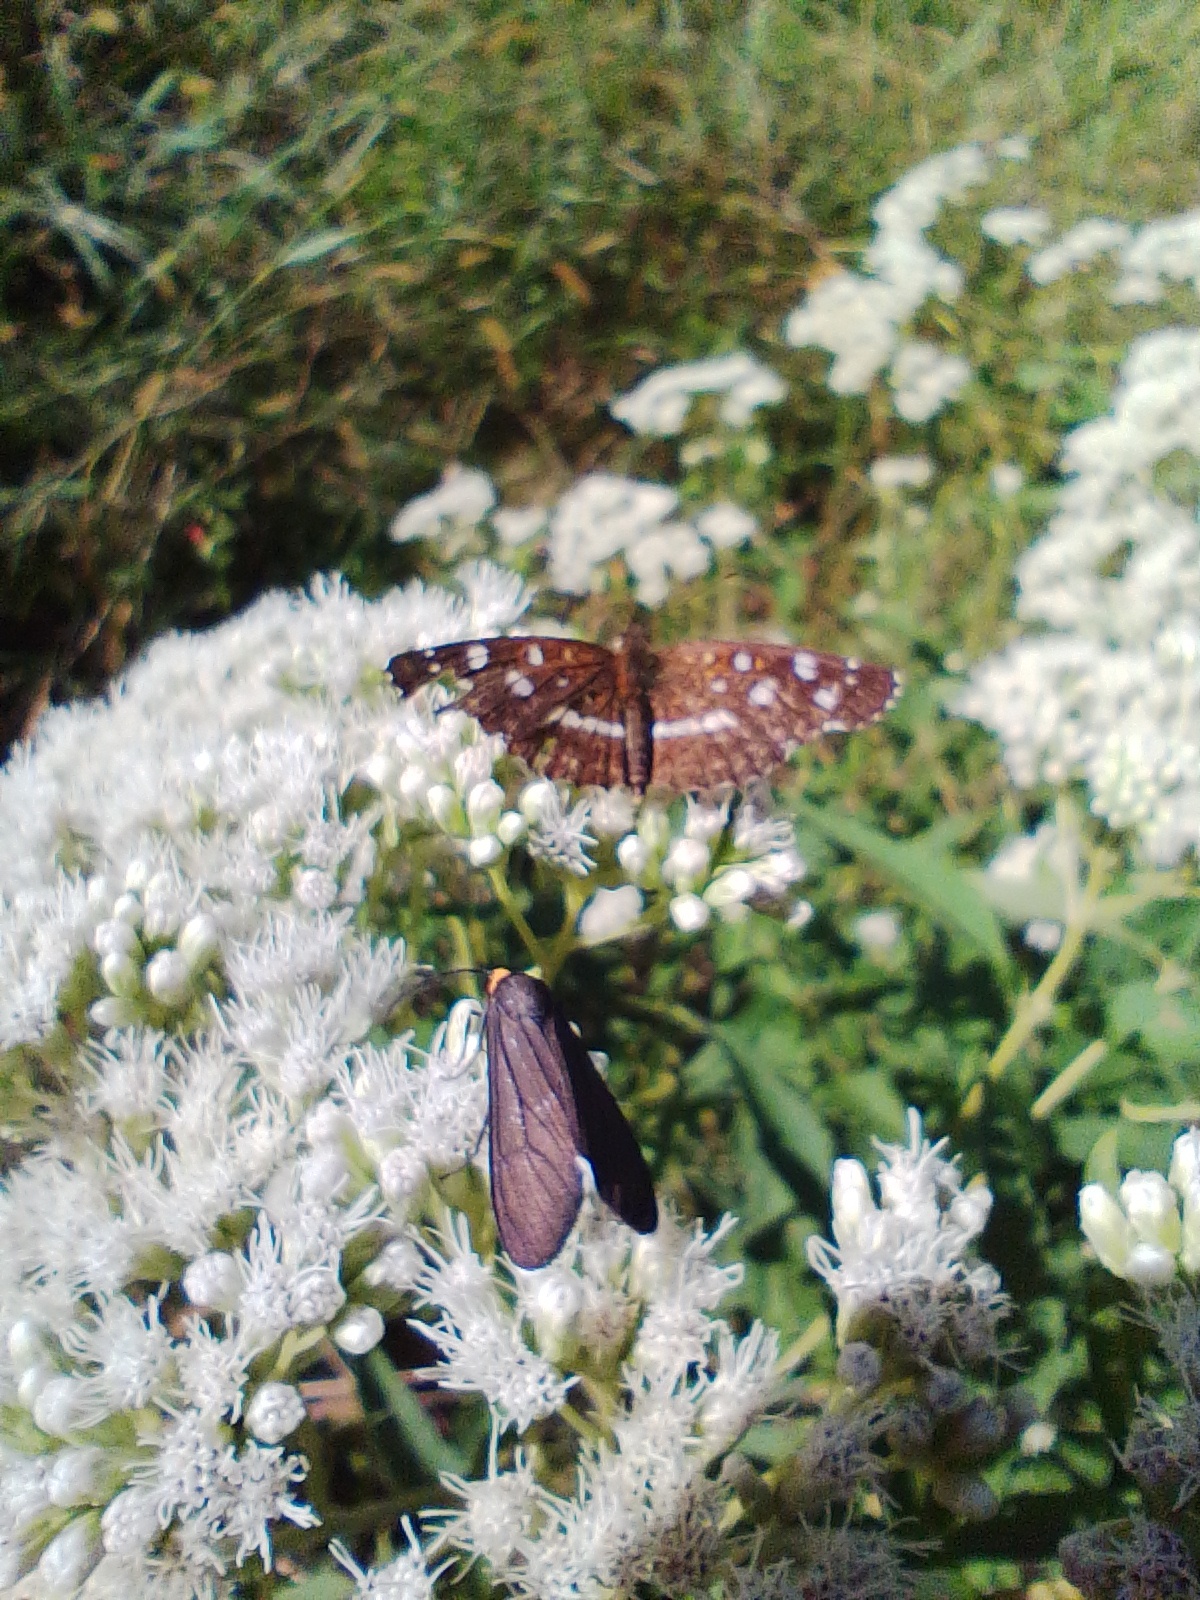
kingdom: Animalia
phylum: Arthropoda
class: Insecta
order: Lepidoptera
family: Erebidae
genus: Ctenucha
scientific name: Ctenucha rubriceps
